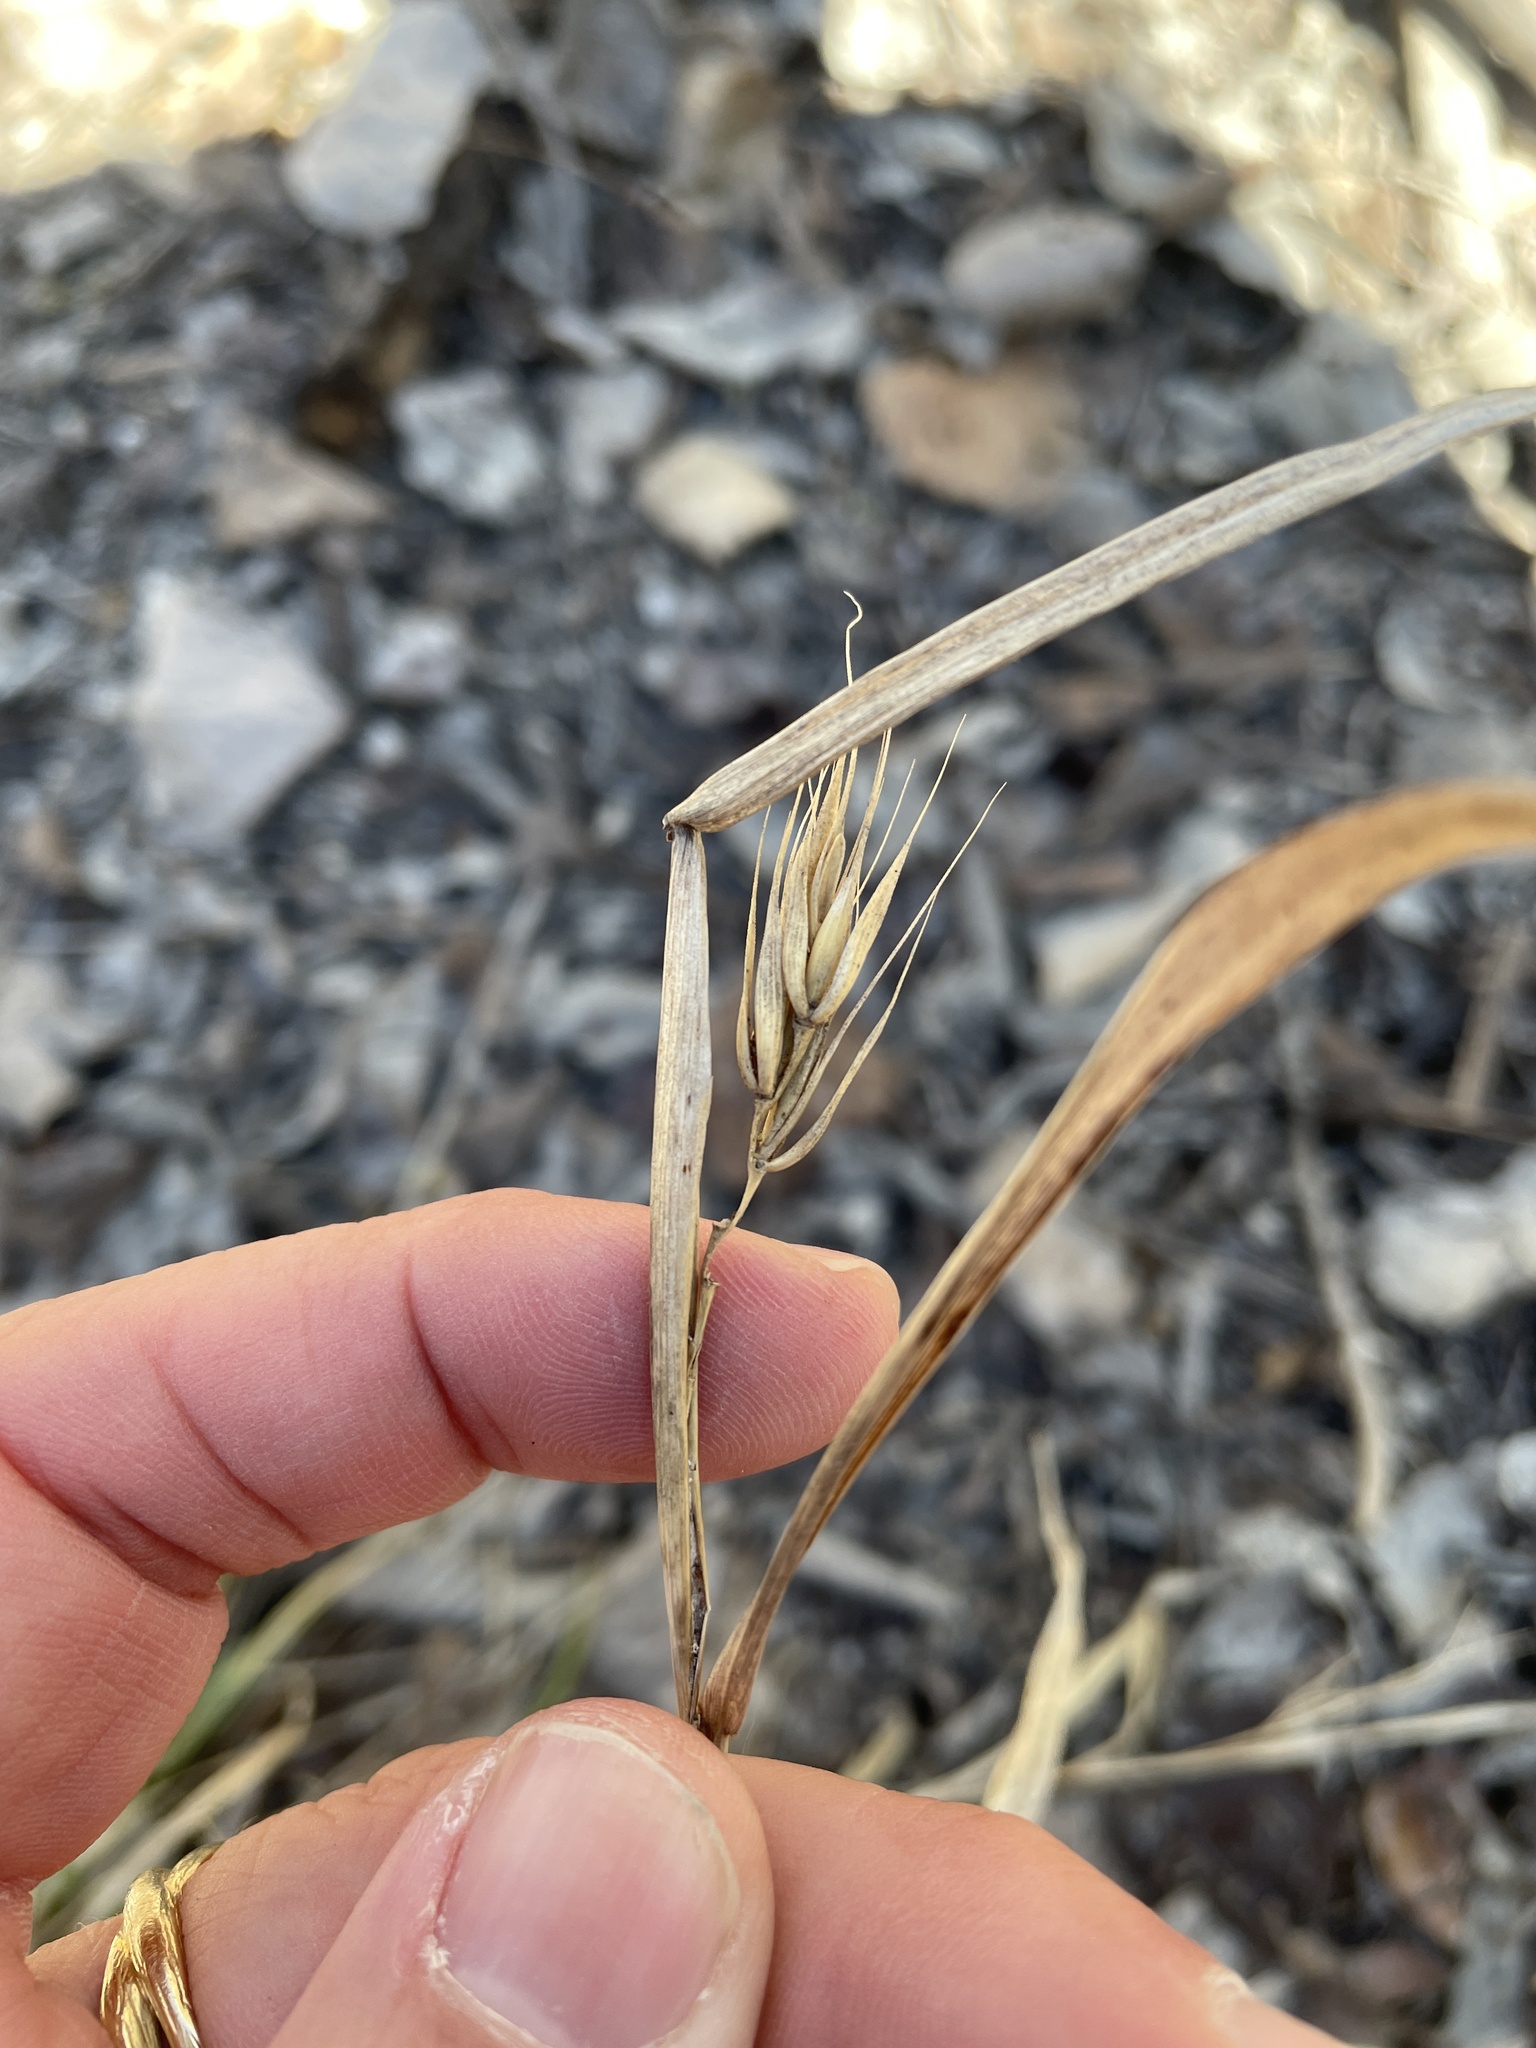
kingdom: Plantae
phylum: Tracheophyta
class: Liliopsida
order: Poales
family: Poaceae
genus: Elymus
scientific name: Elymus virginicus
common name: Common eastern wildrye
